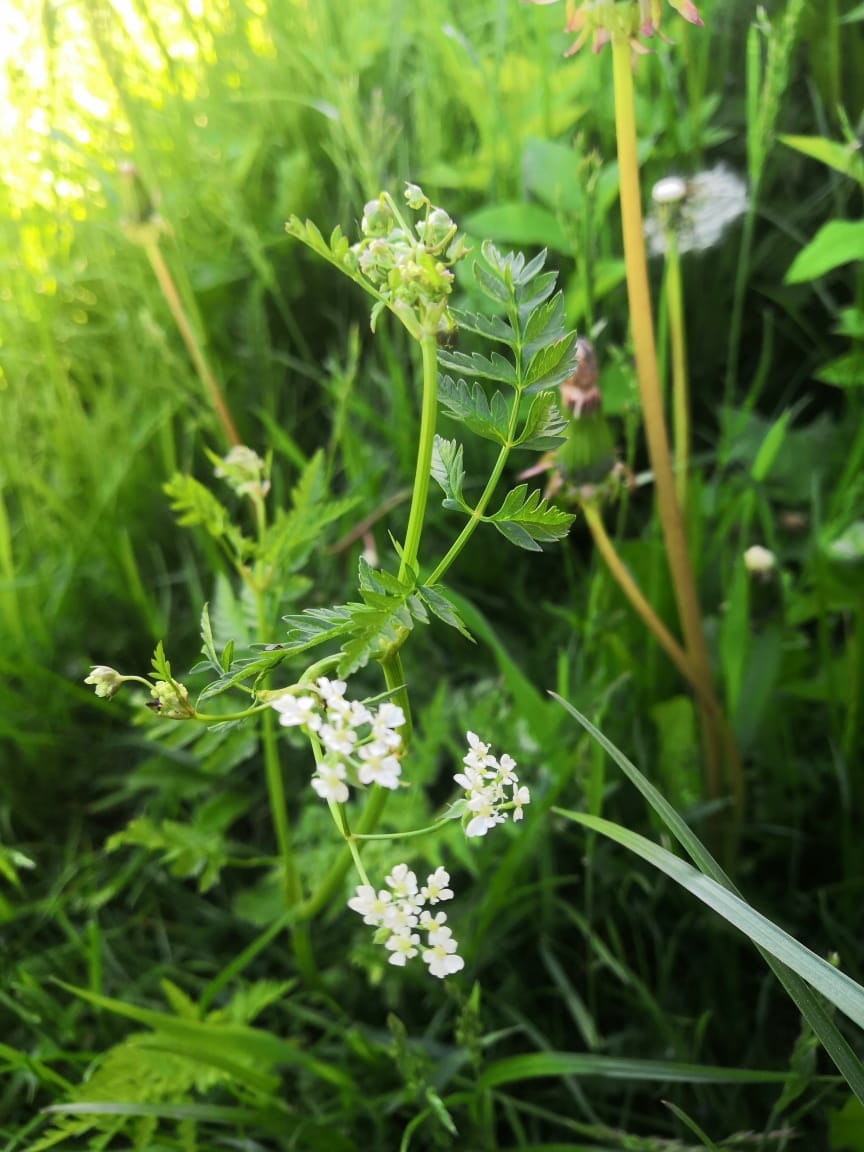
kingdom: Plantae
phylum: Tracheophyta
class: Magnoliopsida
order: Apiales
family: Apiaceae
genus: Anthriscus
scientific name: Anthriscus sylvestris
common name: Cow parsley
